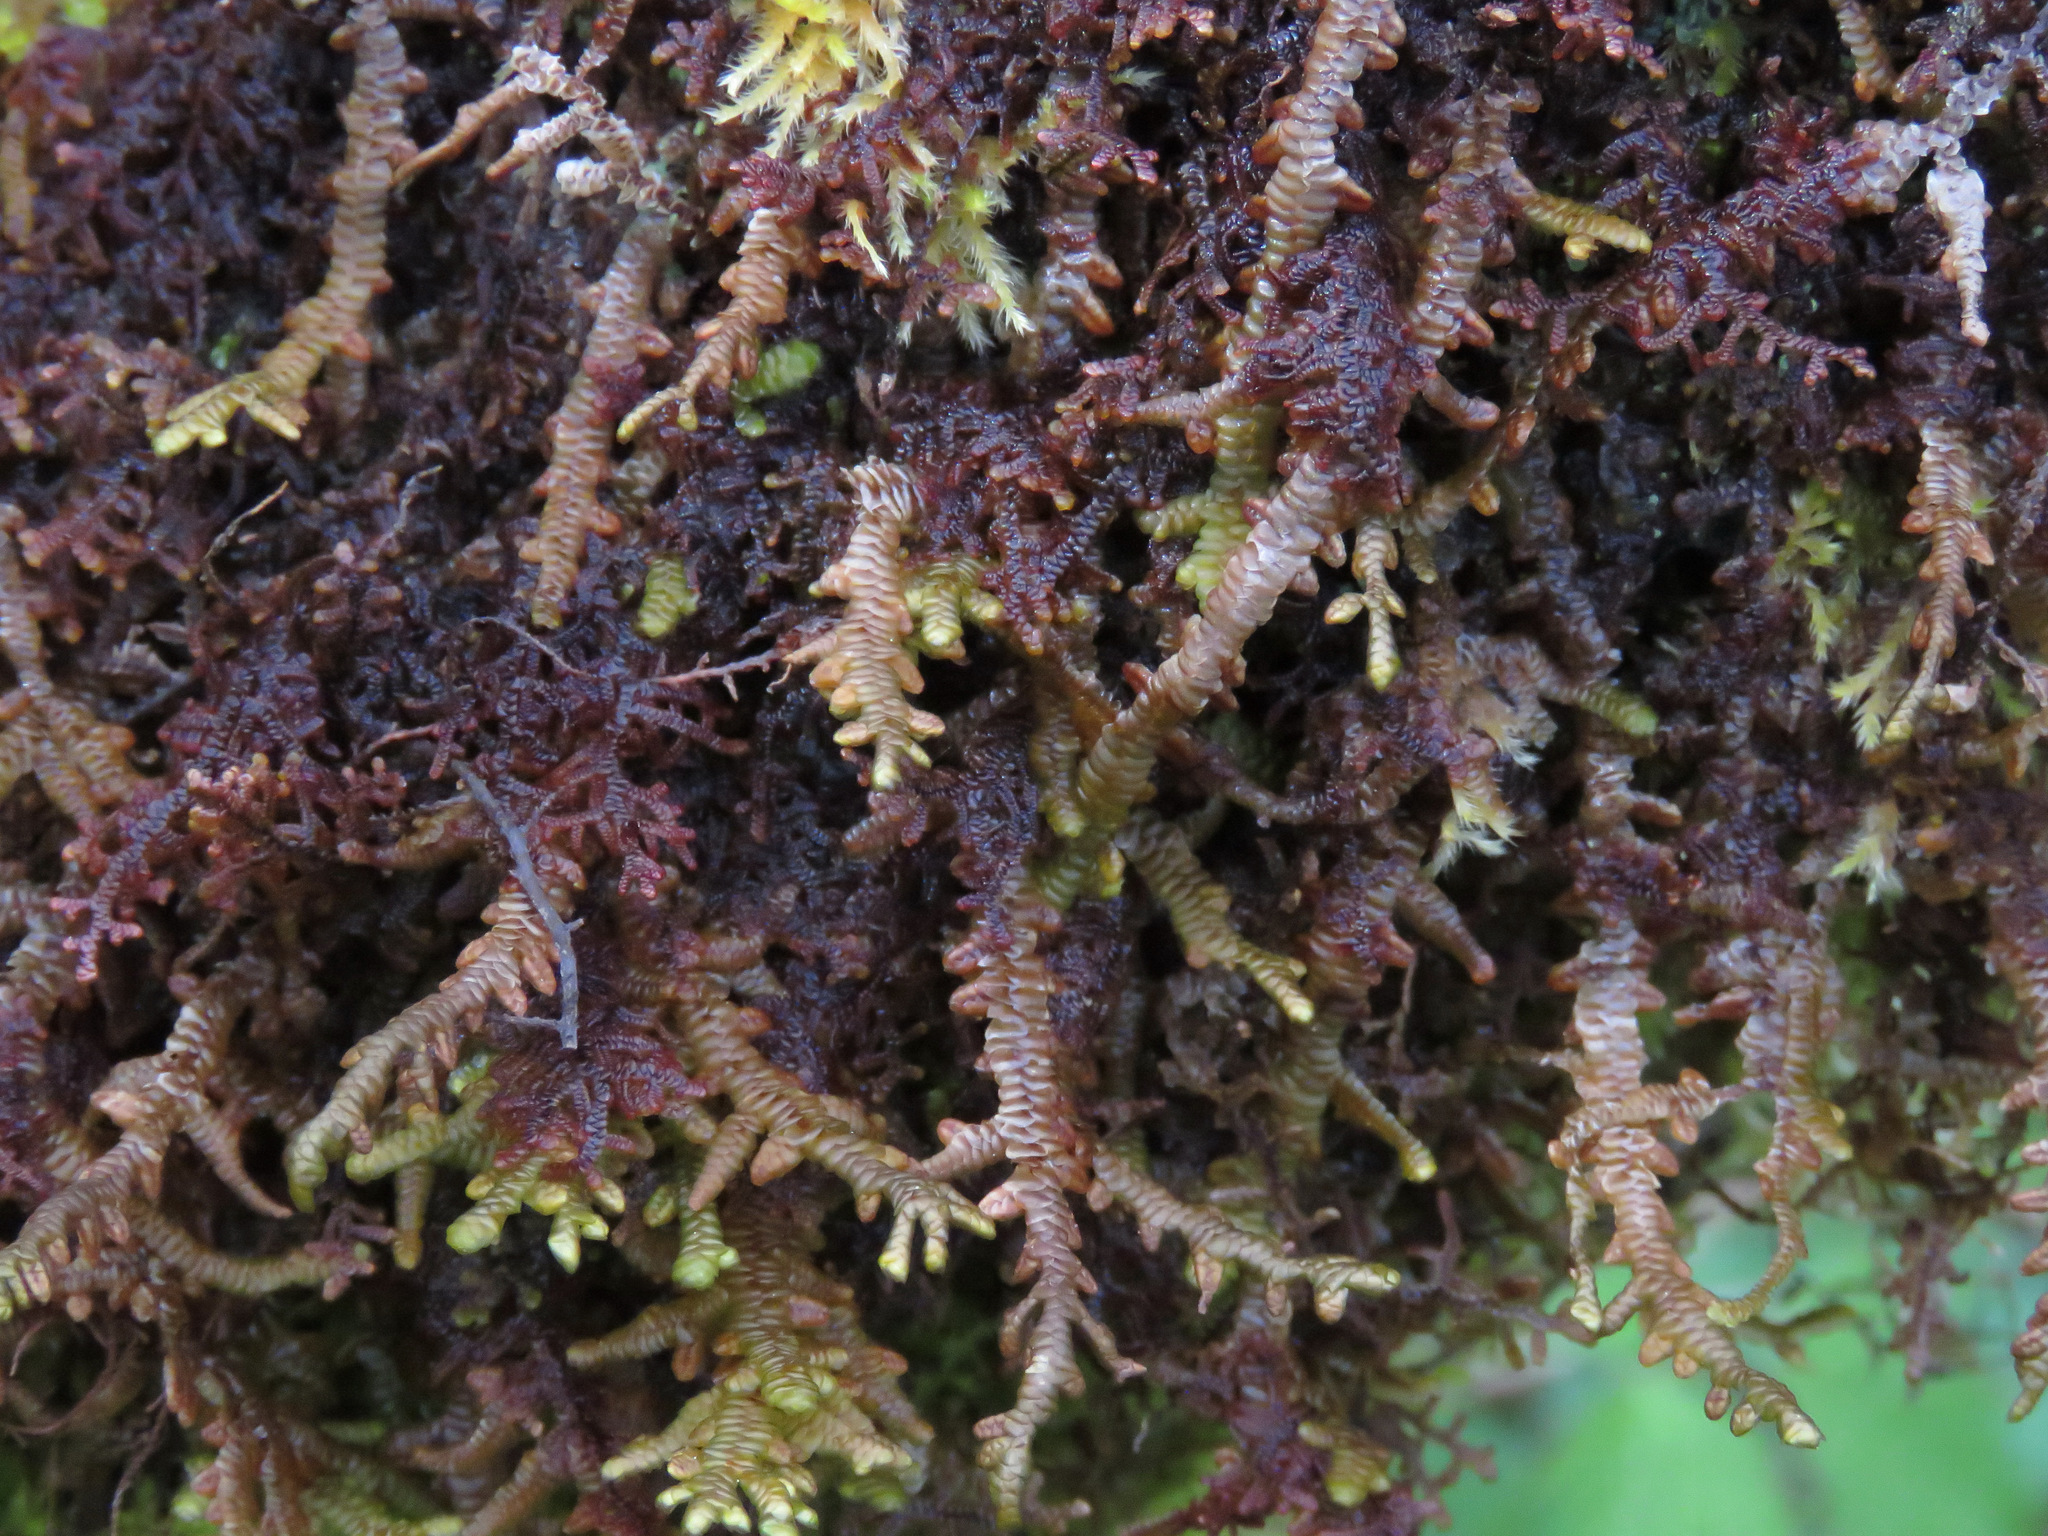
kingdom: Plantae
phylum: Marchantiophyta
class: Jungermanniopsida
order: Porellales
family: Porellaceae
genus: Porella
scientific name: Porella navicularis
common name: Tree ruffle liverwort
